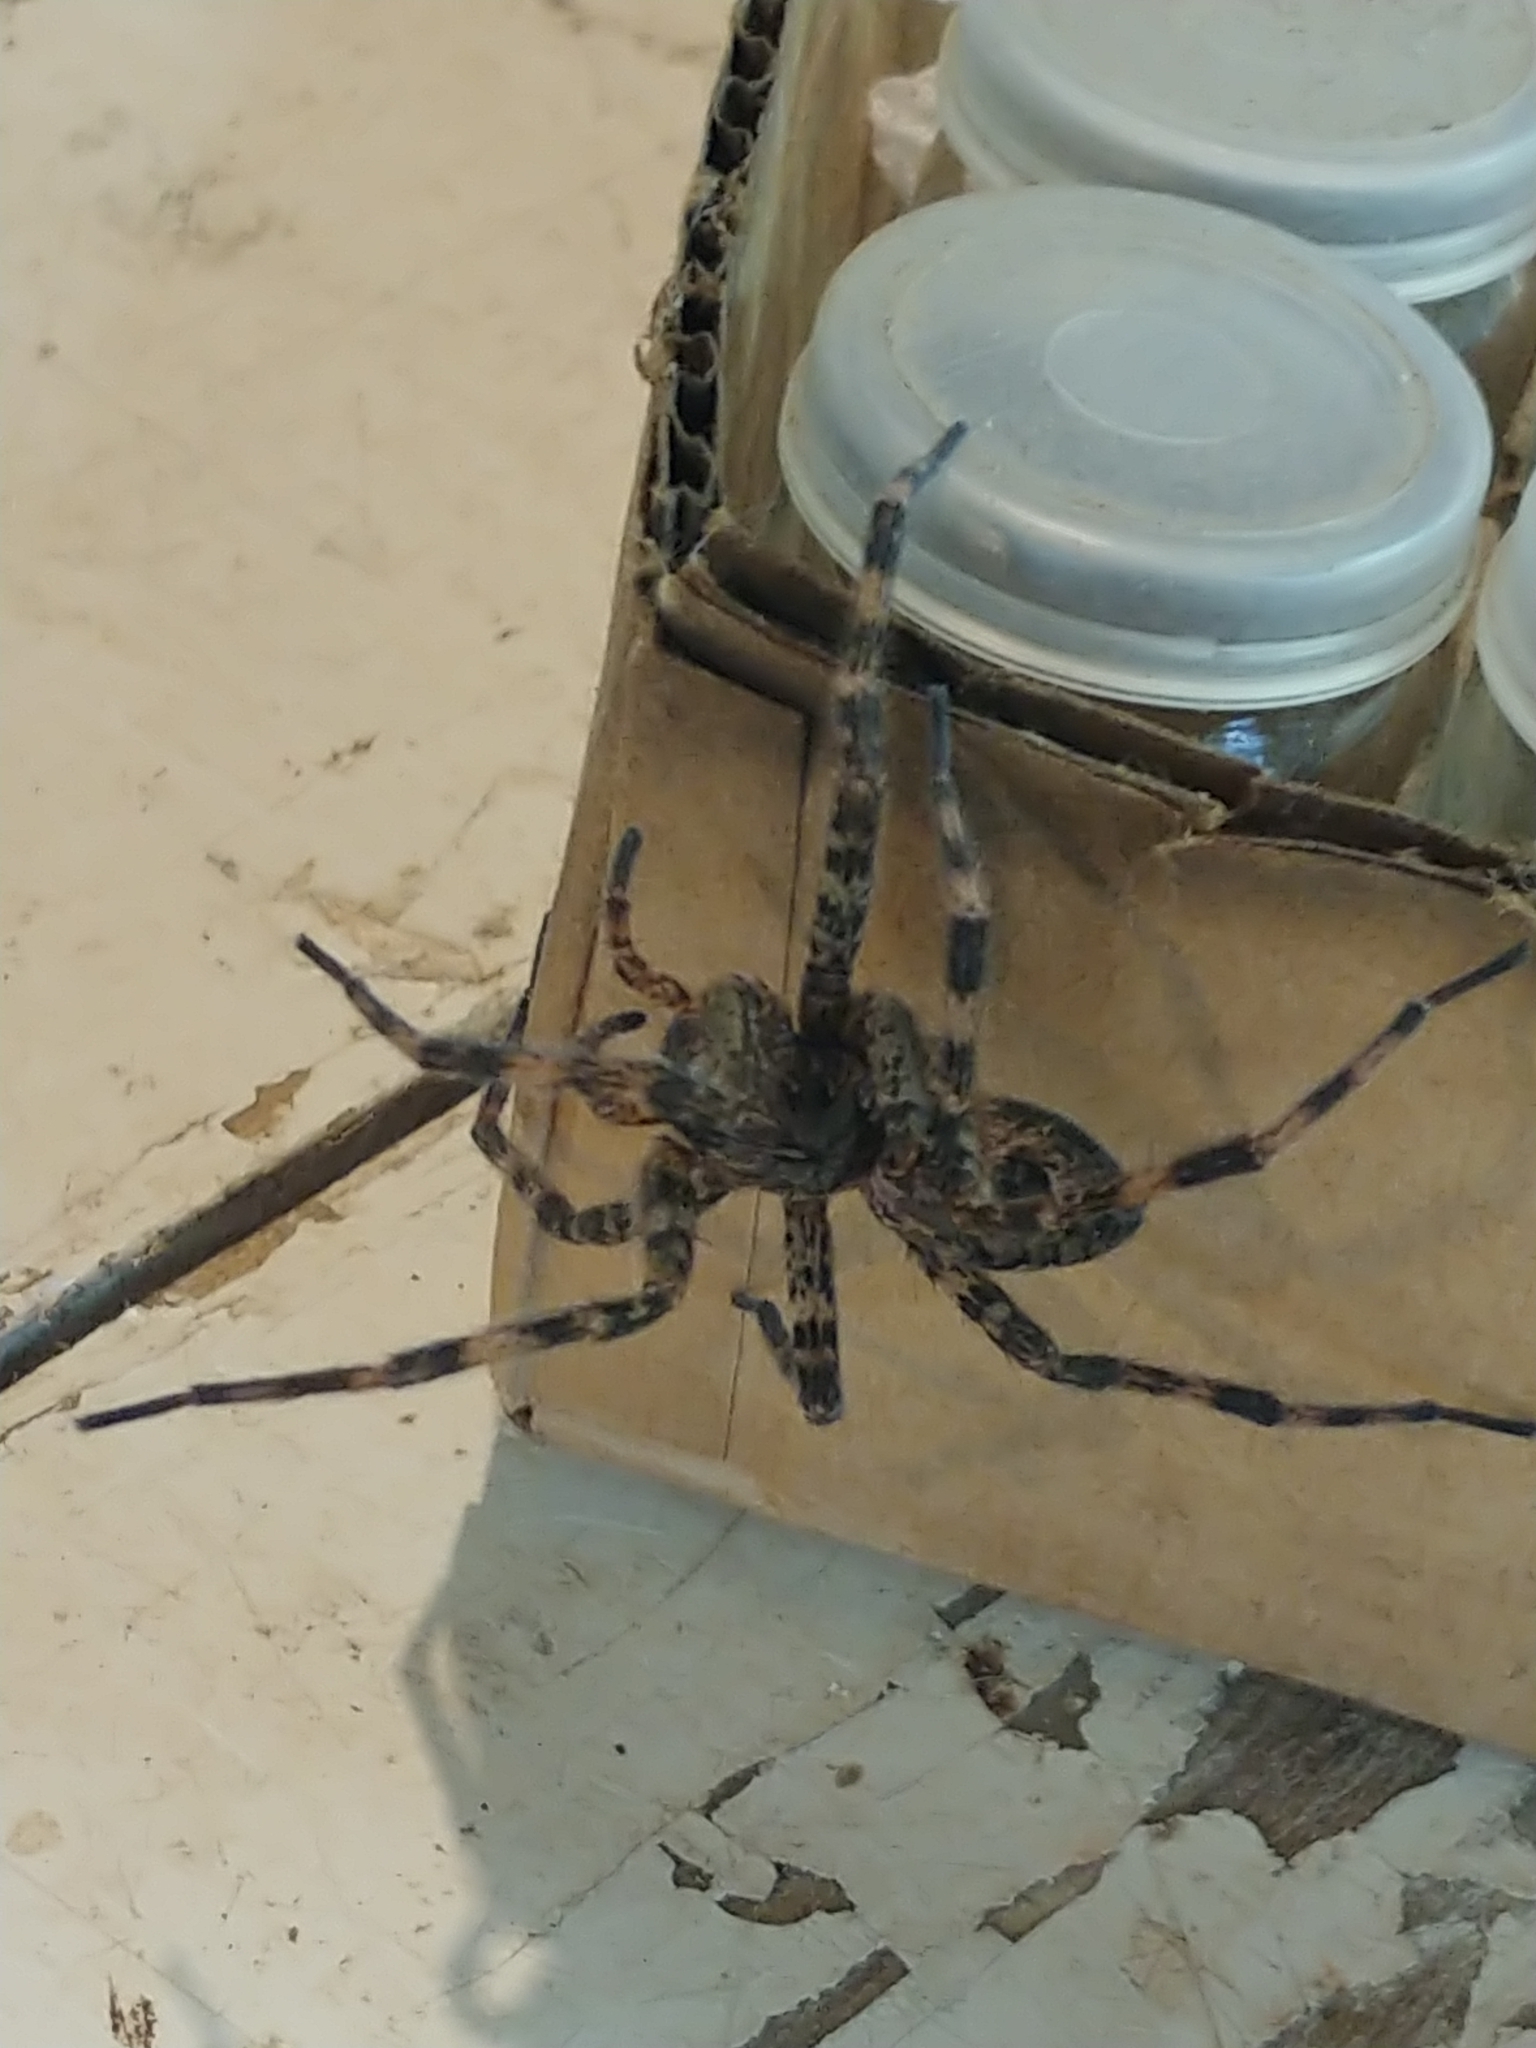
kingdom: Animalia
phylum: Arthropoda
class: Arachnida
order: Araneae
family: Pisauridae
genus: Dolomedes
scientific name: Dolomedes tenebrosus
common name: Dark fishing spider
